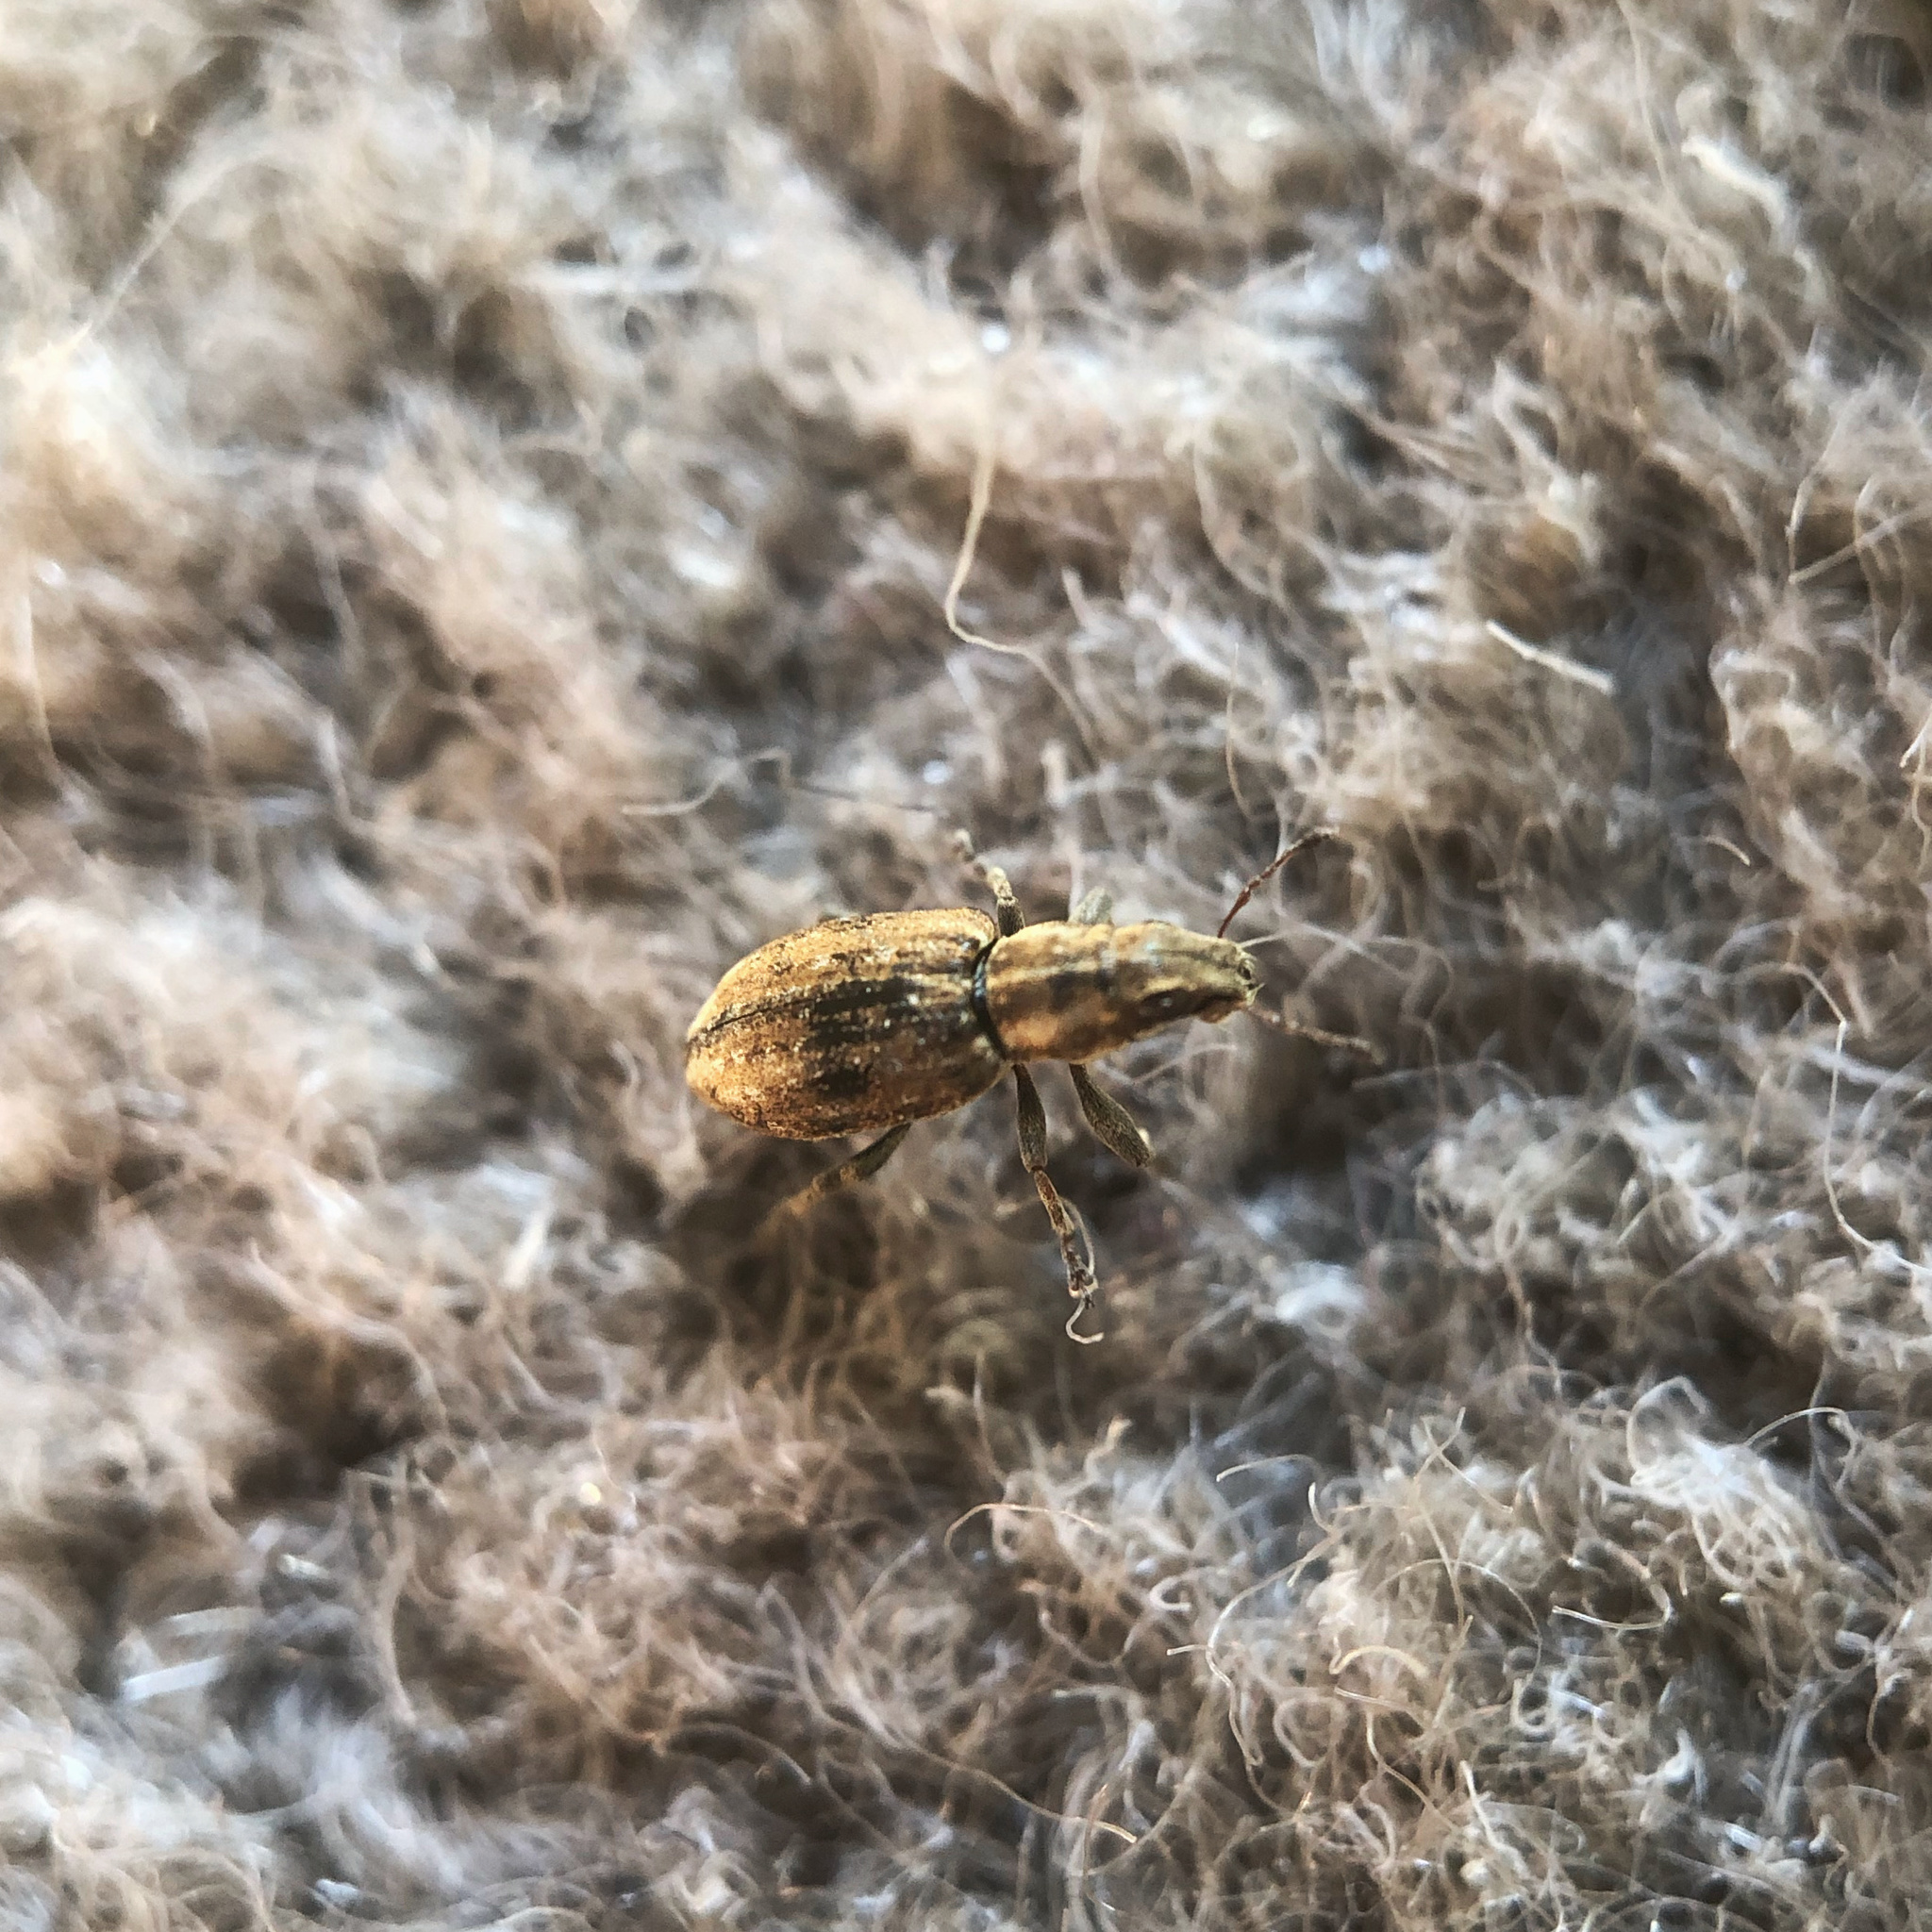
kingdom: Animalia
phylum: Arthropoda
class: Insecta
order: Coleoptera
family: Curculionidae
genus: Sitona
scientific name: Sitona obsoletus
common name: Weevil
